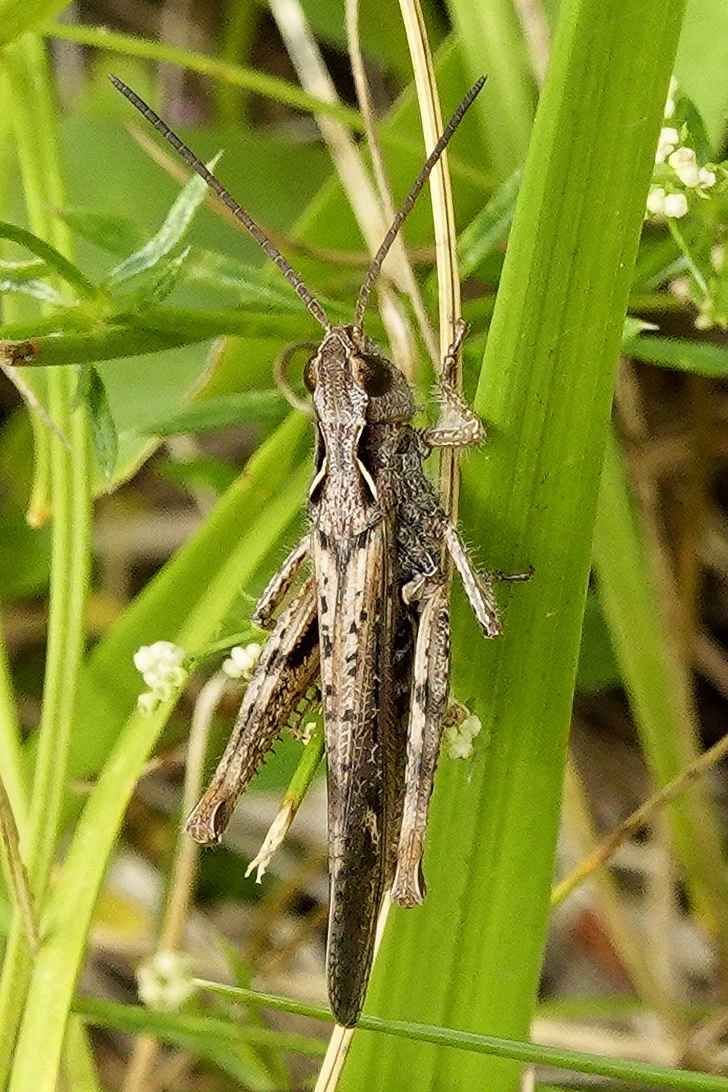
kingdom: Animalia
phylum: Arthropoda
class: Insecta
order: Orthoptera
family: Acrididae
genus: Chorthippus
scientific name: Chorthippus brunneus
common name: Field grasshopper
